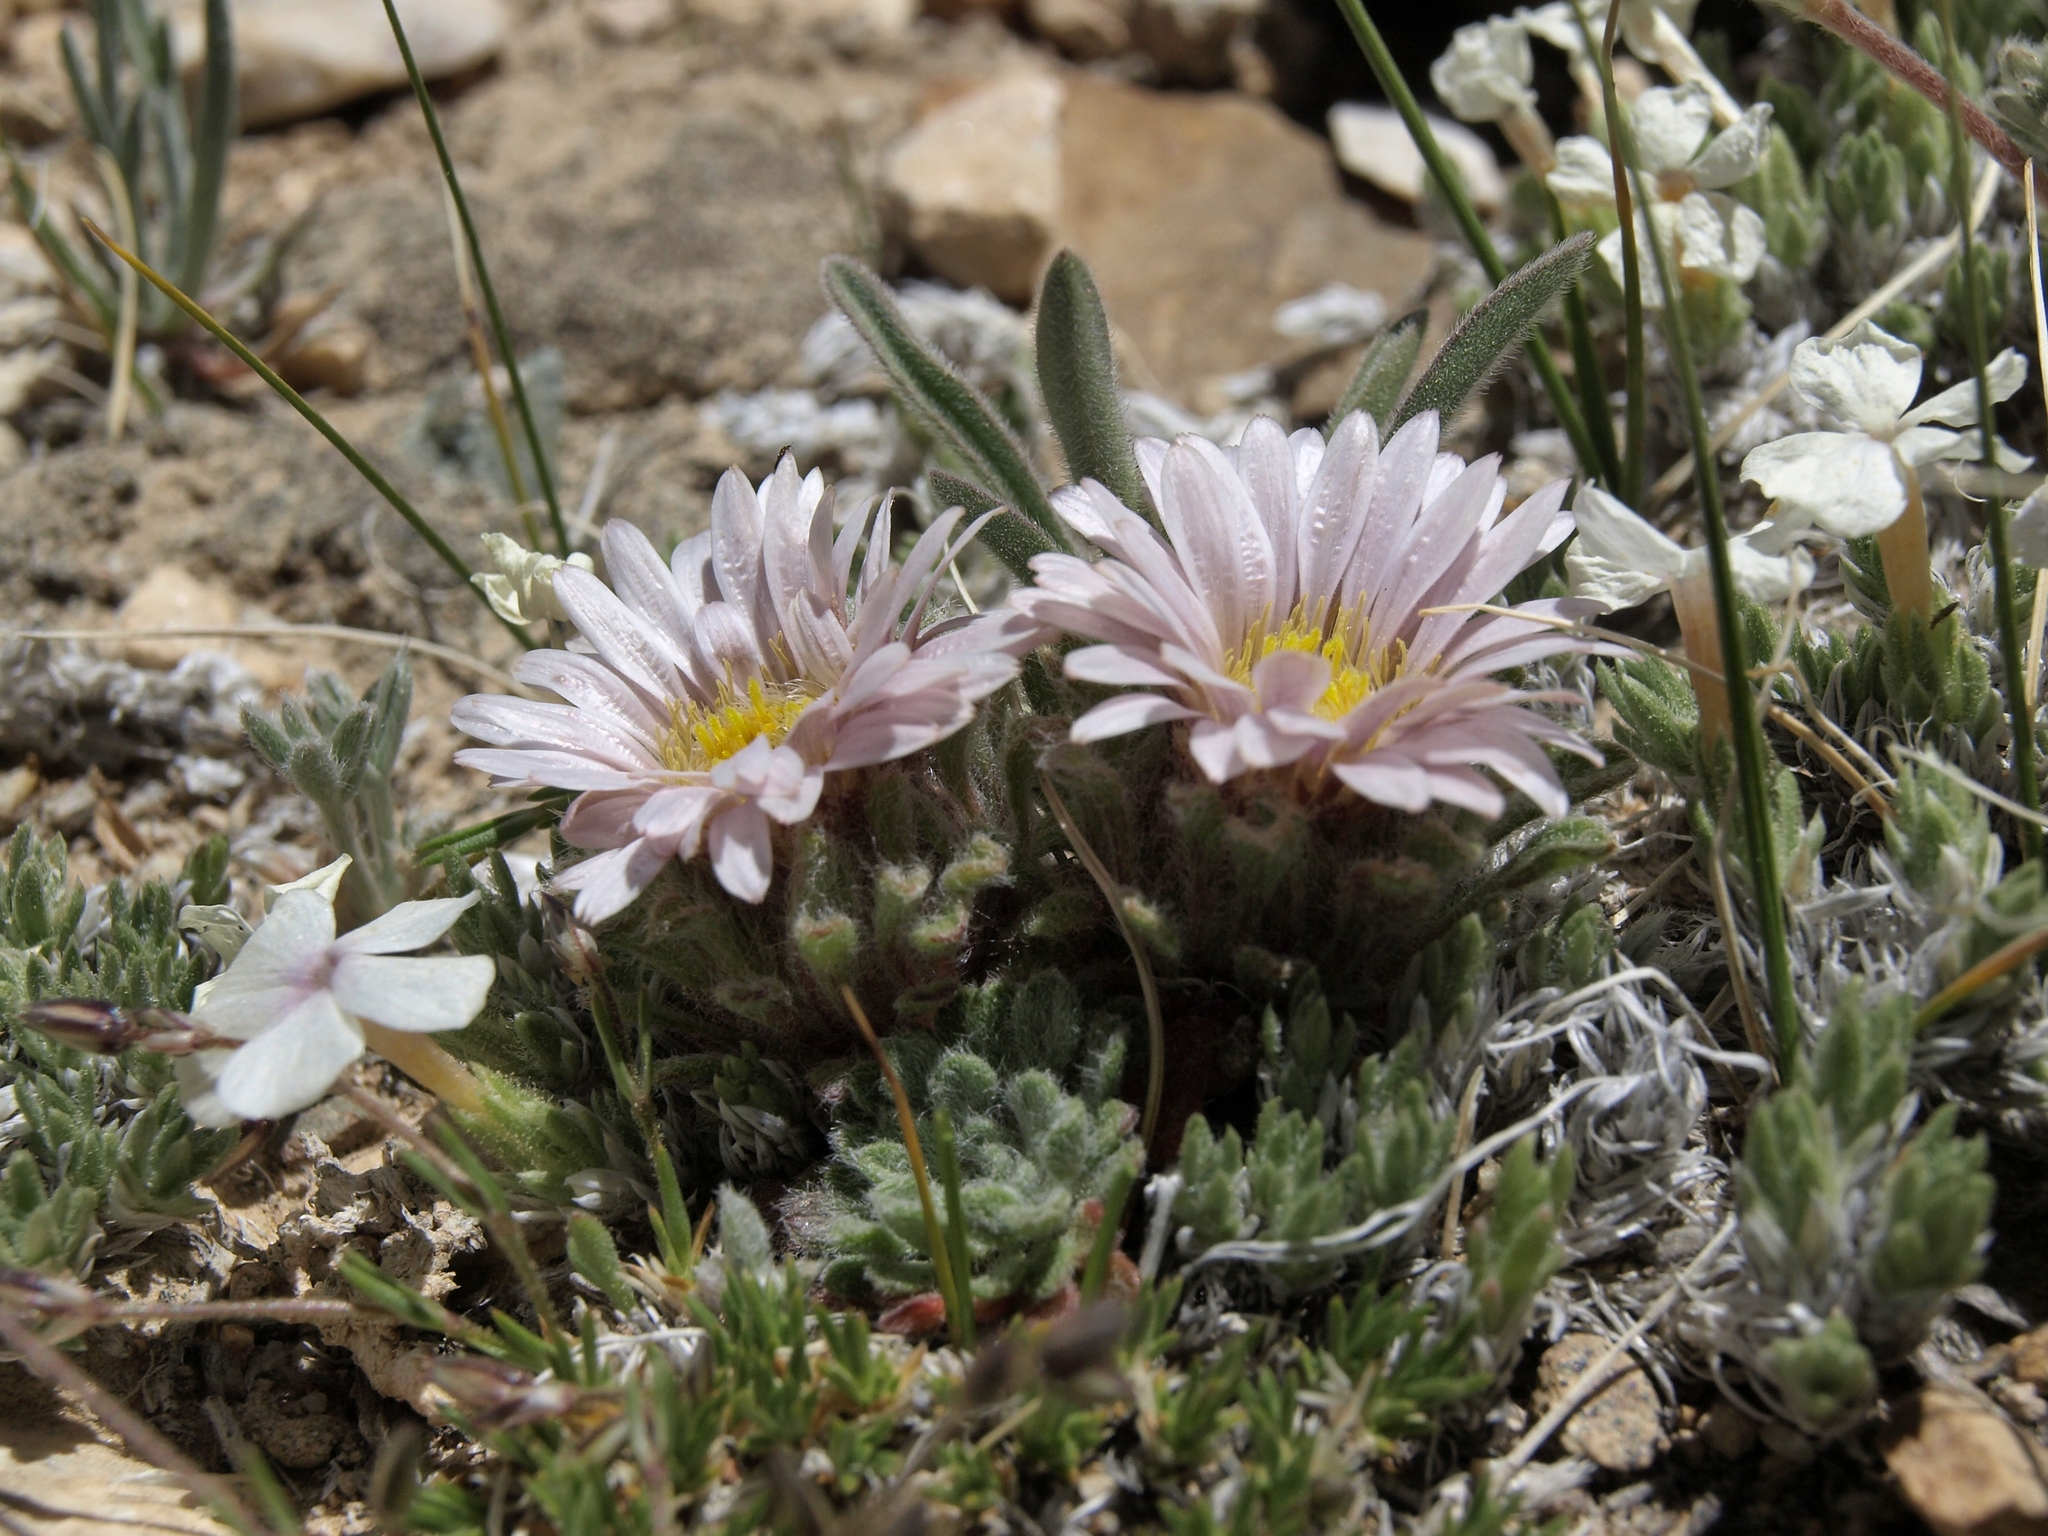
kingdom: Plantae
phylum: Tracheophyta
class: Magnoliopsida
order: Asterales
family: Asteraceae
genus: Townsendia
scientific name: Townsendia condensata
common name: Alpine townsend daisy
